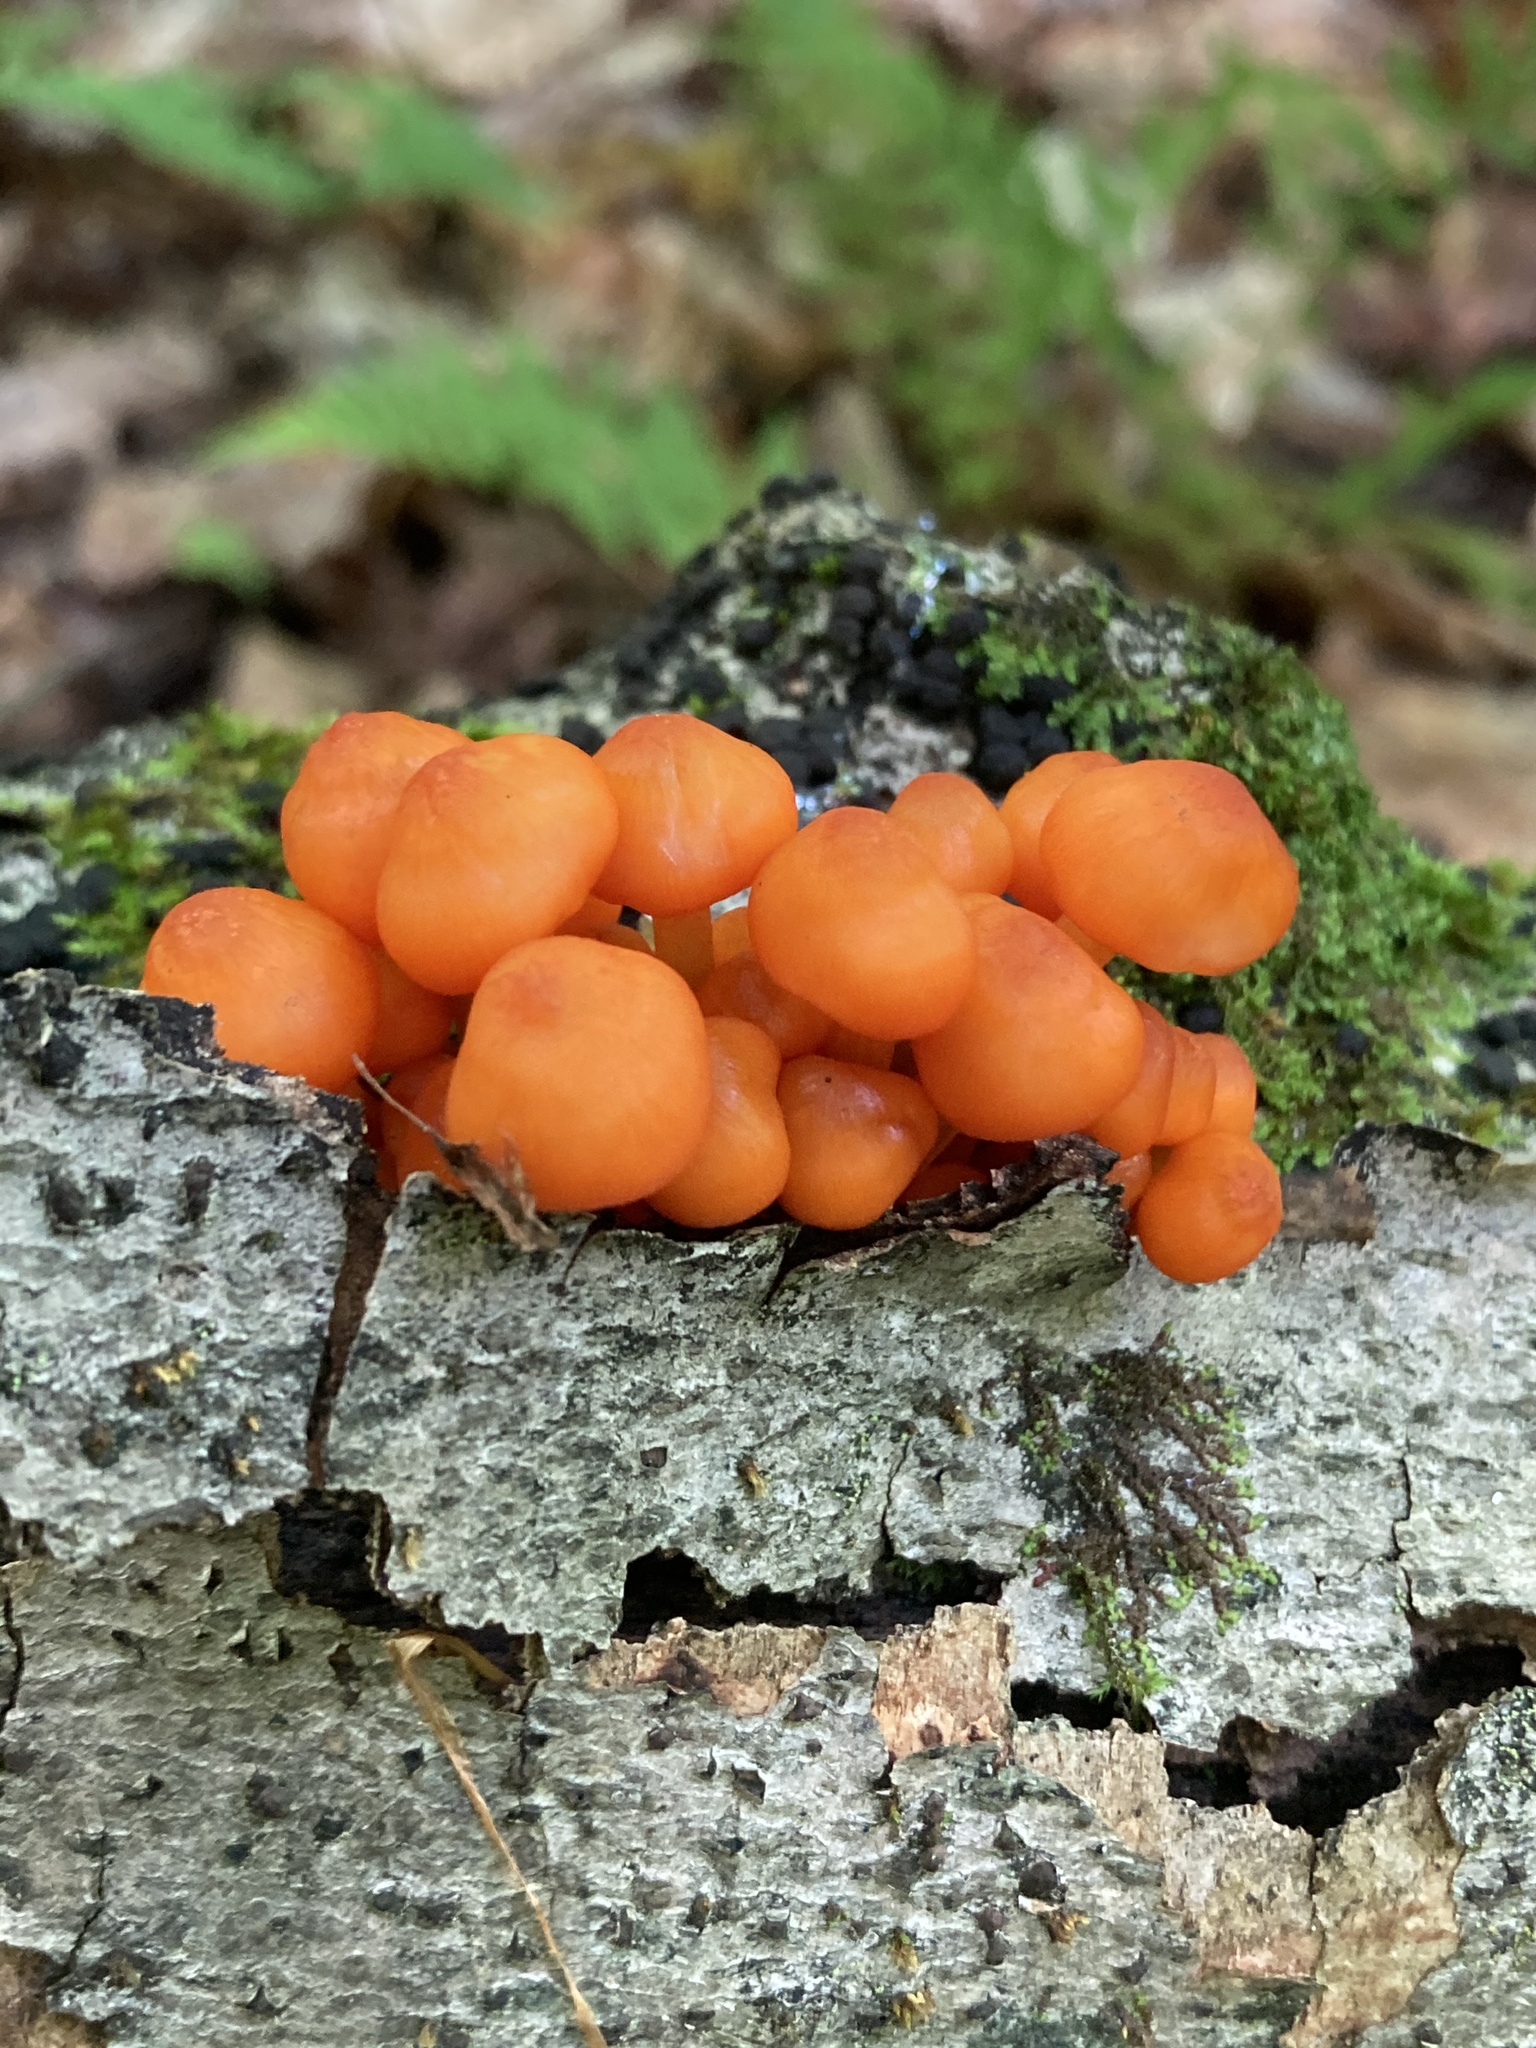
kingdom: Fungi
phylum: Basidiomycota
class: Agaricomycetes
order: Agaricales
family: Mycenaceae
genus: Mycena
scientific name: Mycena leaiana
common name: Orange mycena
